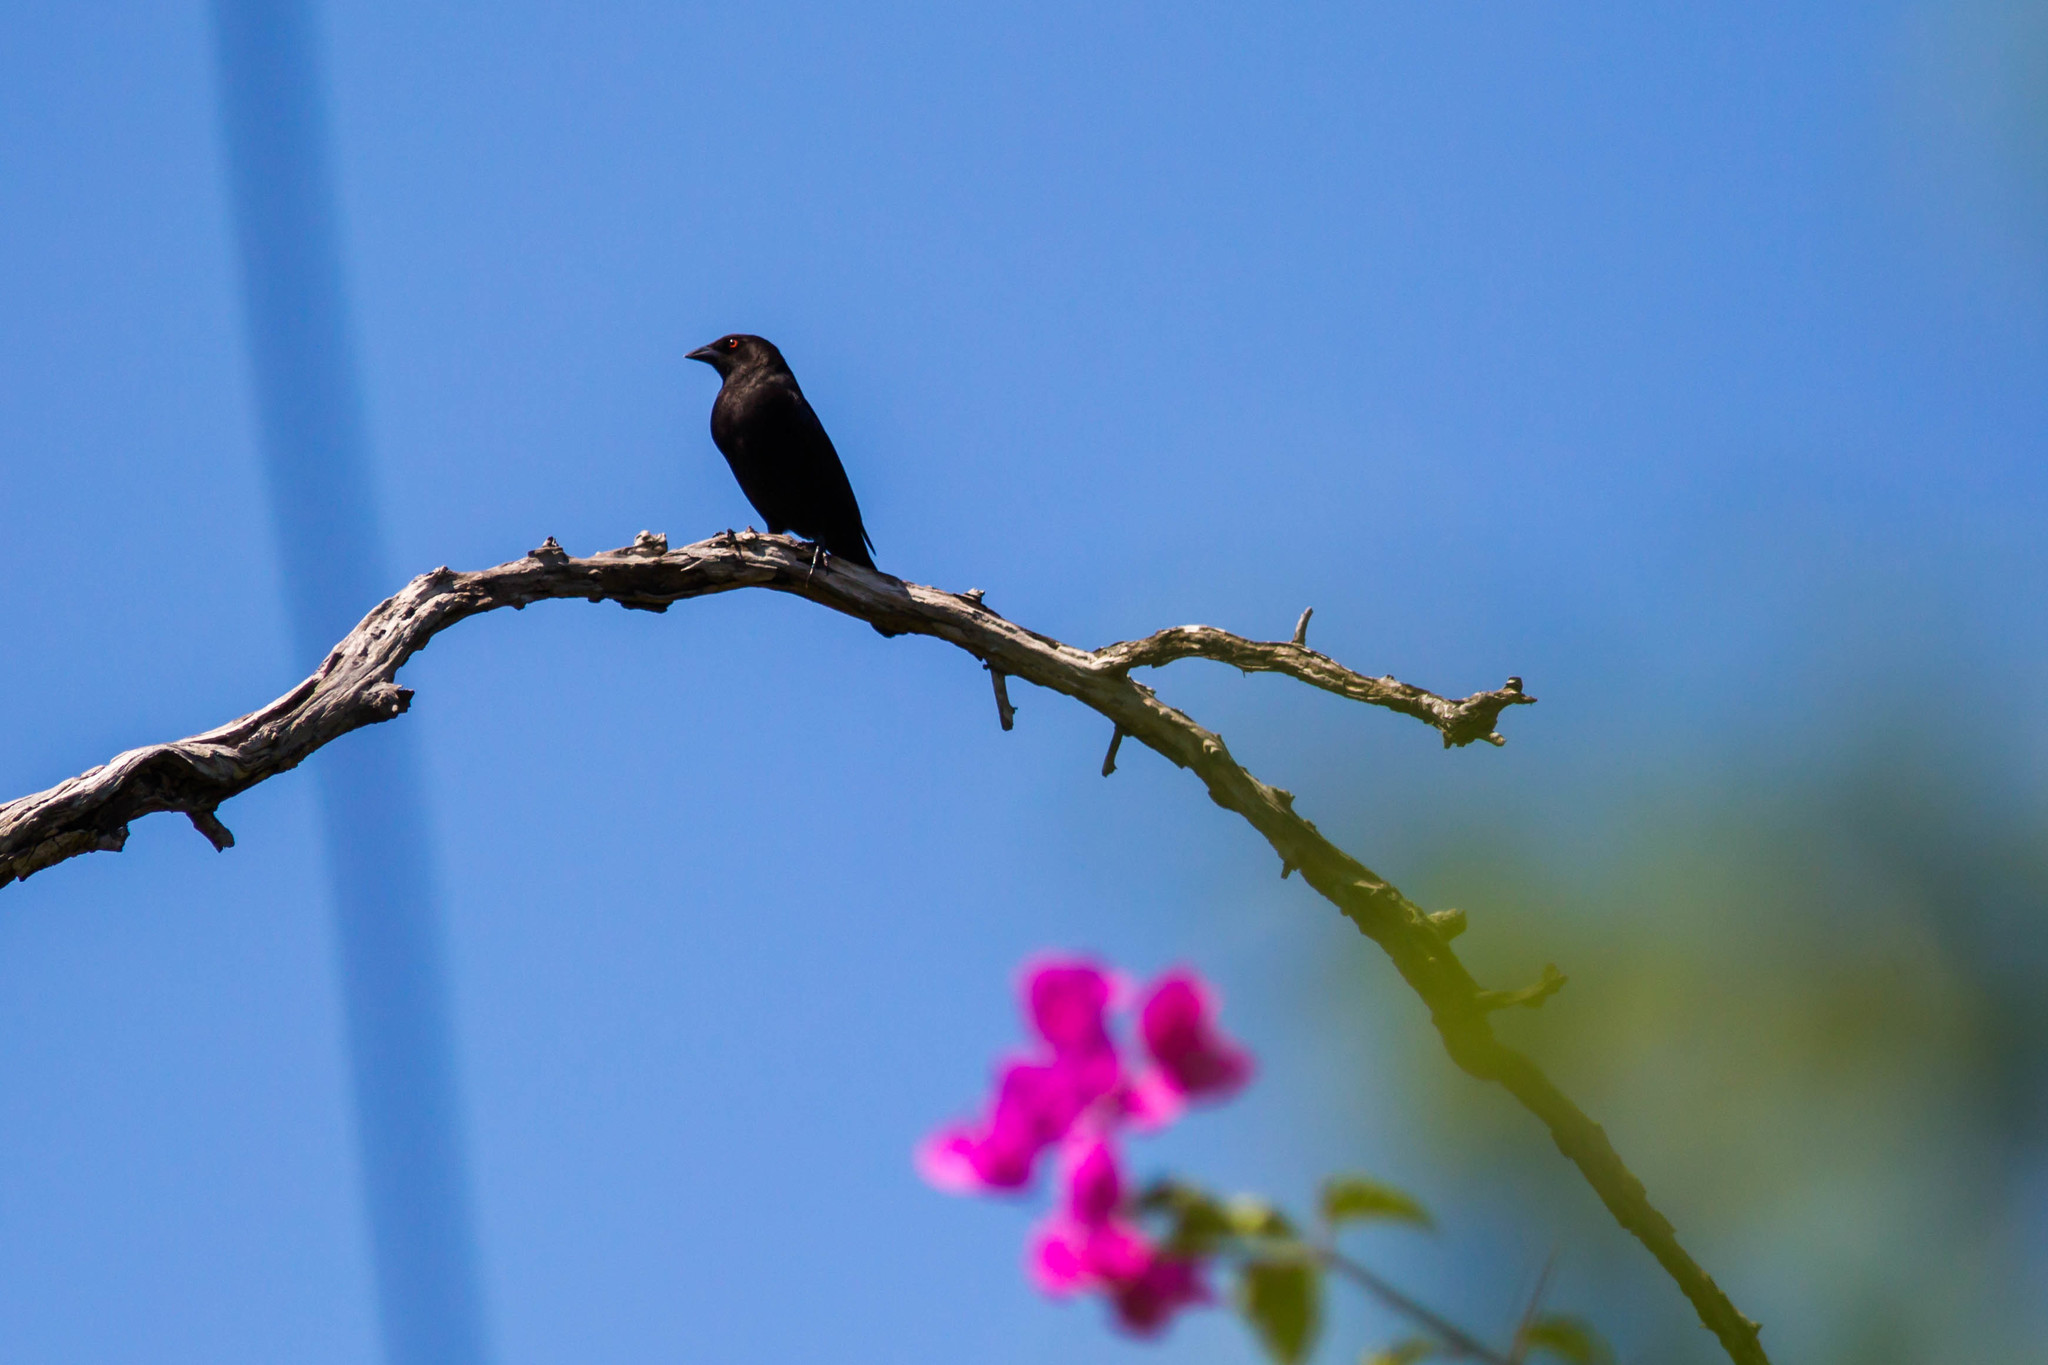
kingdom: Animalia
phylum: Chordata
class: Aves
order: Passeriformes
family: Icteridae
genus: Molothrus
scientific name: Molothrus aeneus
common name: Bronzed cowbird
